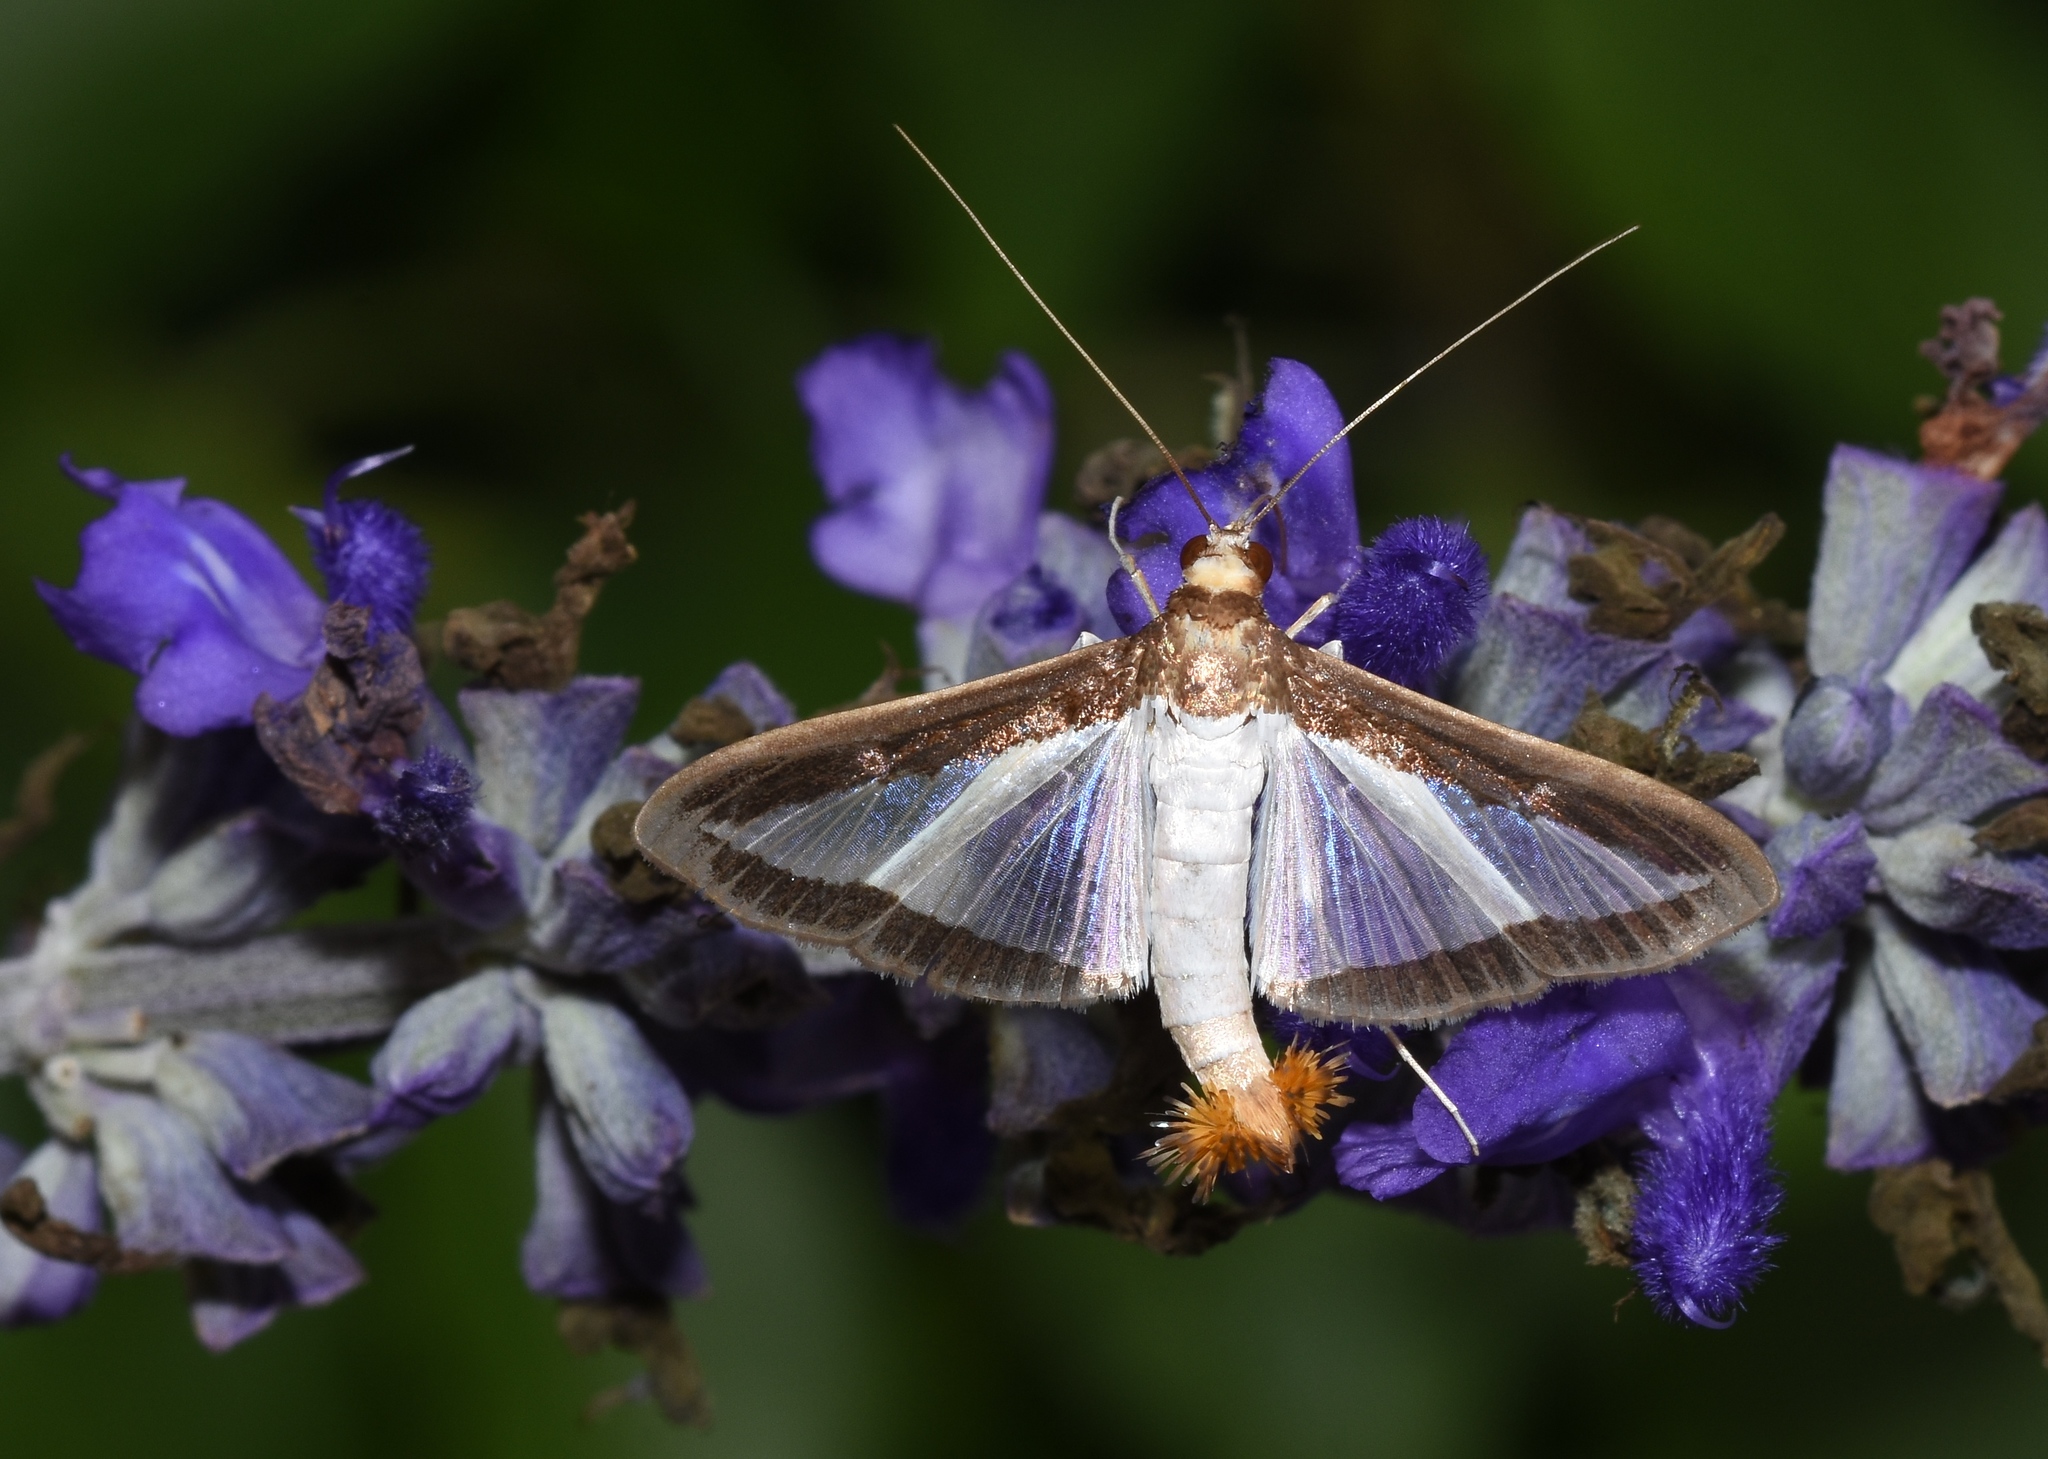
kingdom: Animalia
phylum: Arthropoda
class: Insecta
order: Lepidoptera
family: Crambidae
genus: Diaphania
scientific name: Diaphania hyalinata
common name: Melonworm
